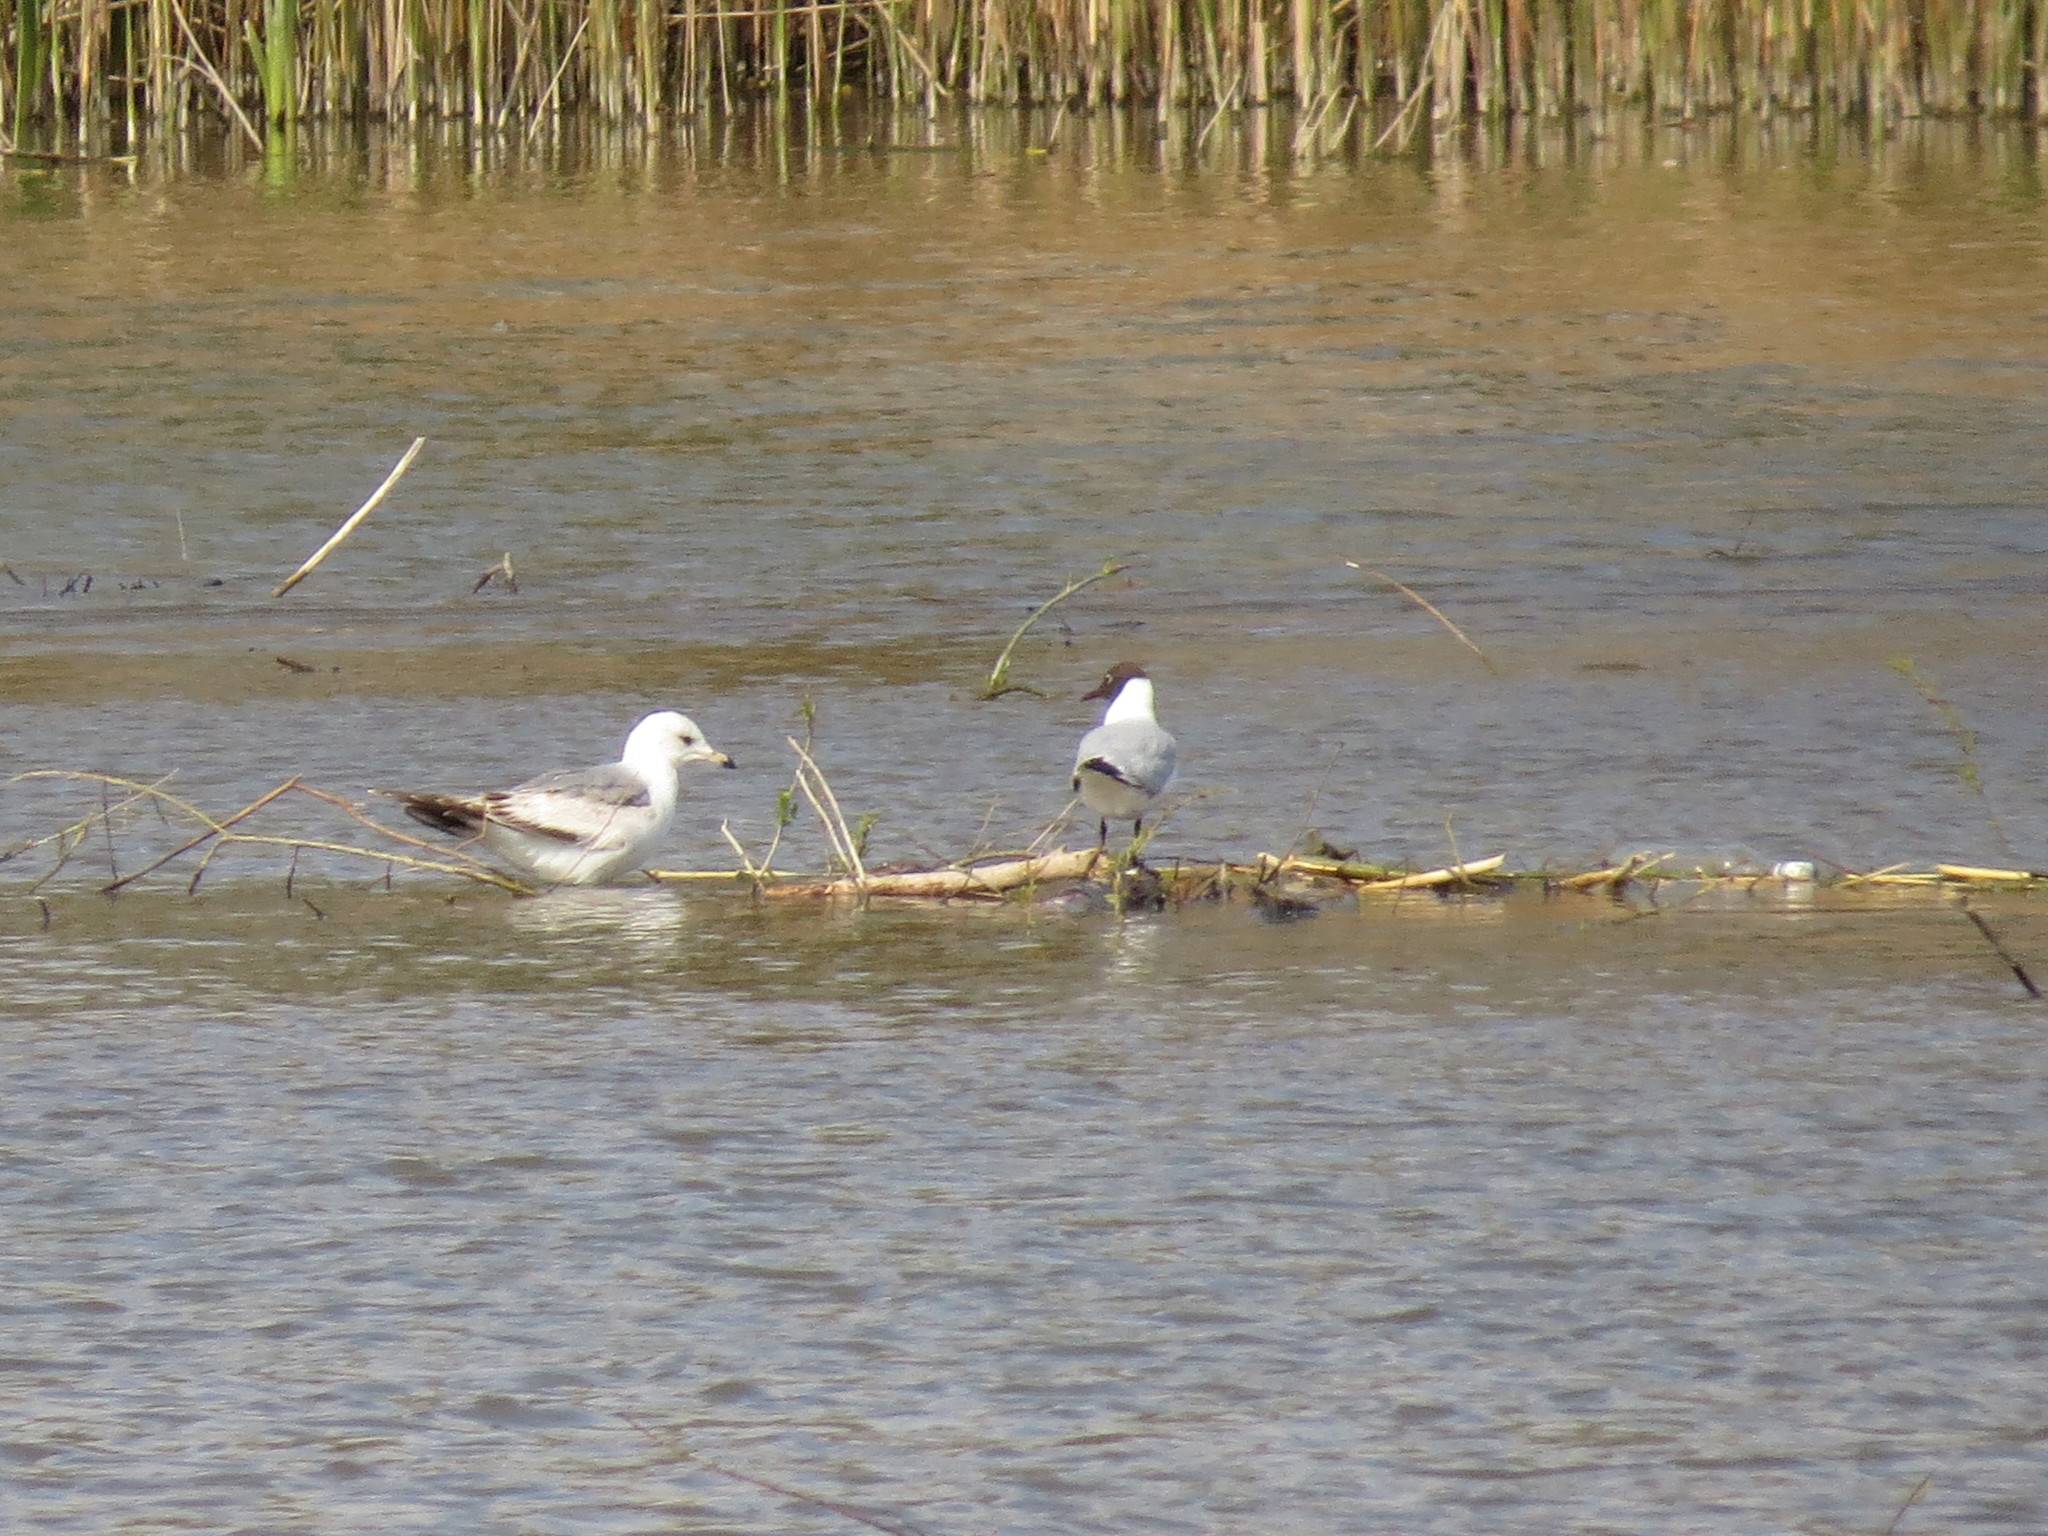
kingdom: Animalia
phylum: Chordata
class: Aves
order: Charadriiformes
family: Laridae
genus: Chroicocephalus
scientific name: Chroicocephalus ridibundus
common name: Black-headed gull
